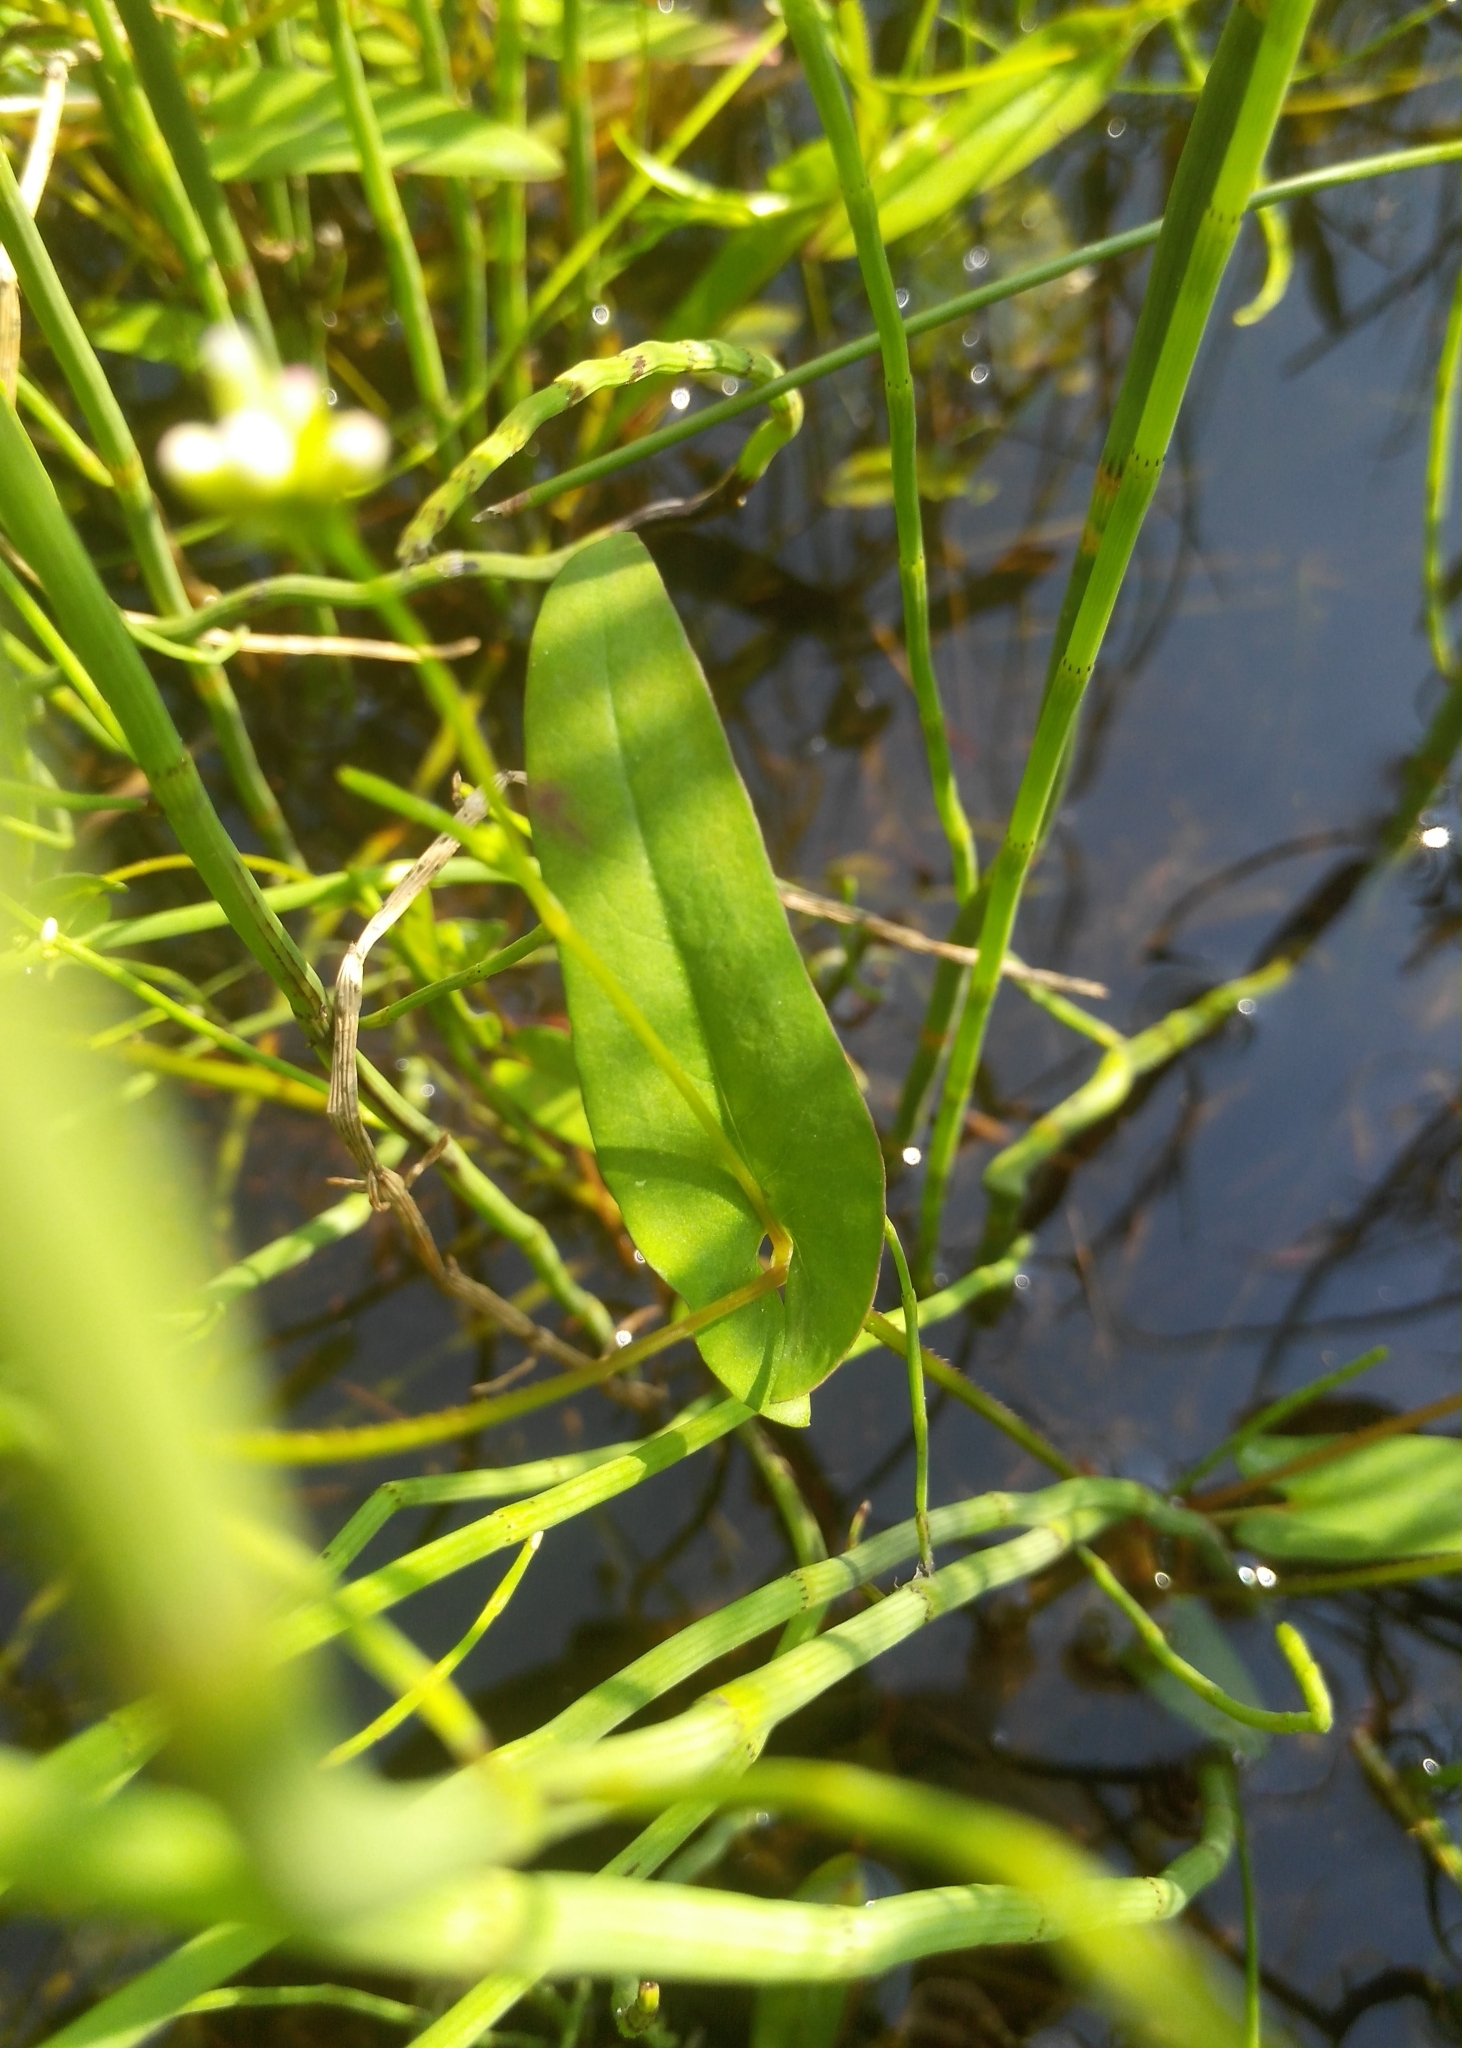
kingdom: Plantae
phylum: Tracheophyta
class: Magnoliopsida
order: Caryophyllales
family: Polygonaceae
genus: Persicaria
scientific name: Persicaria sagittata
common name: American tearthumb
